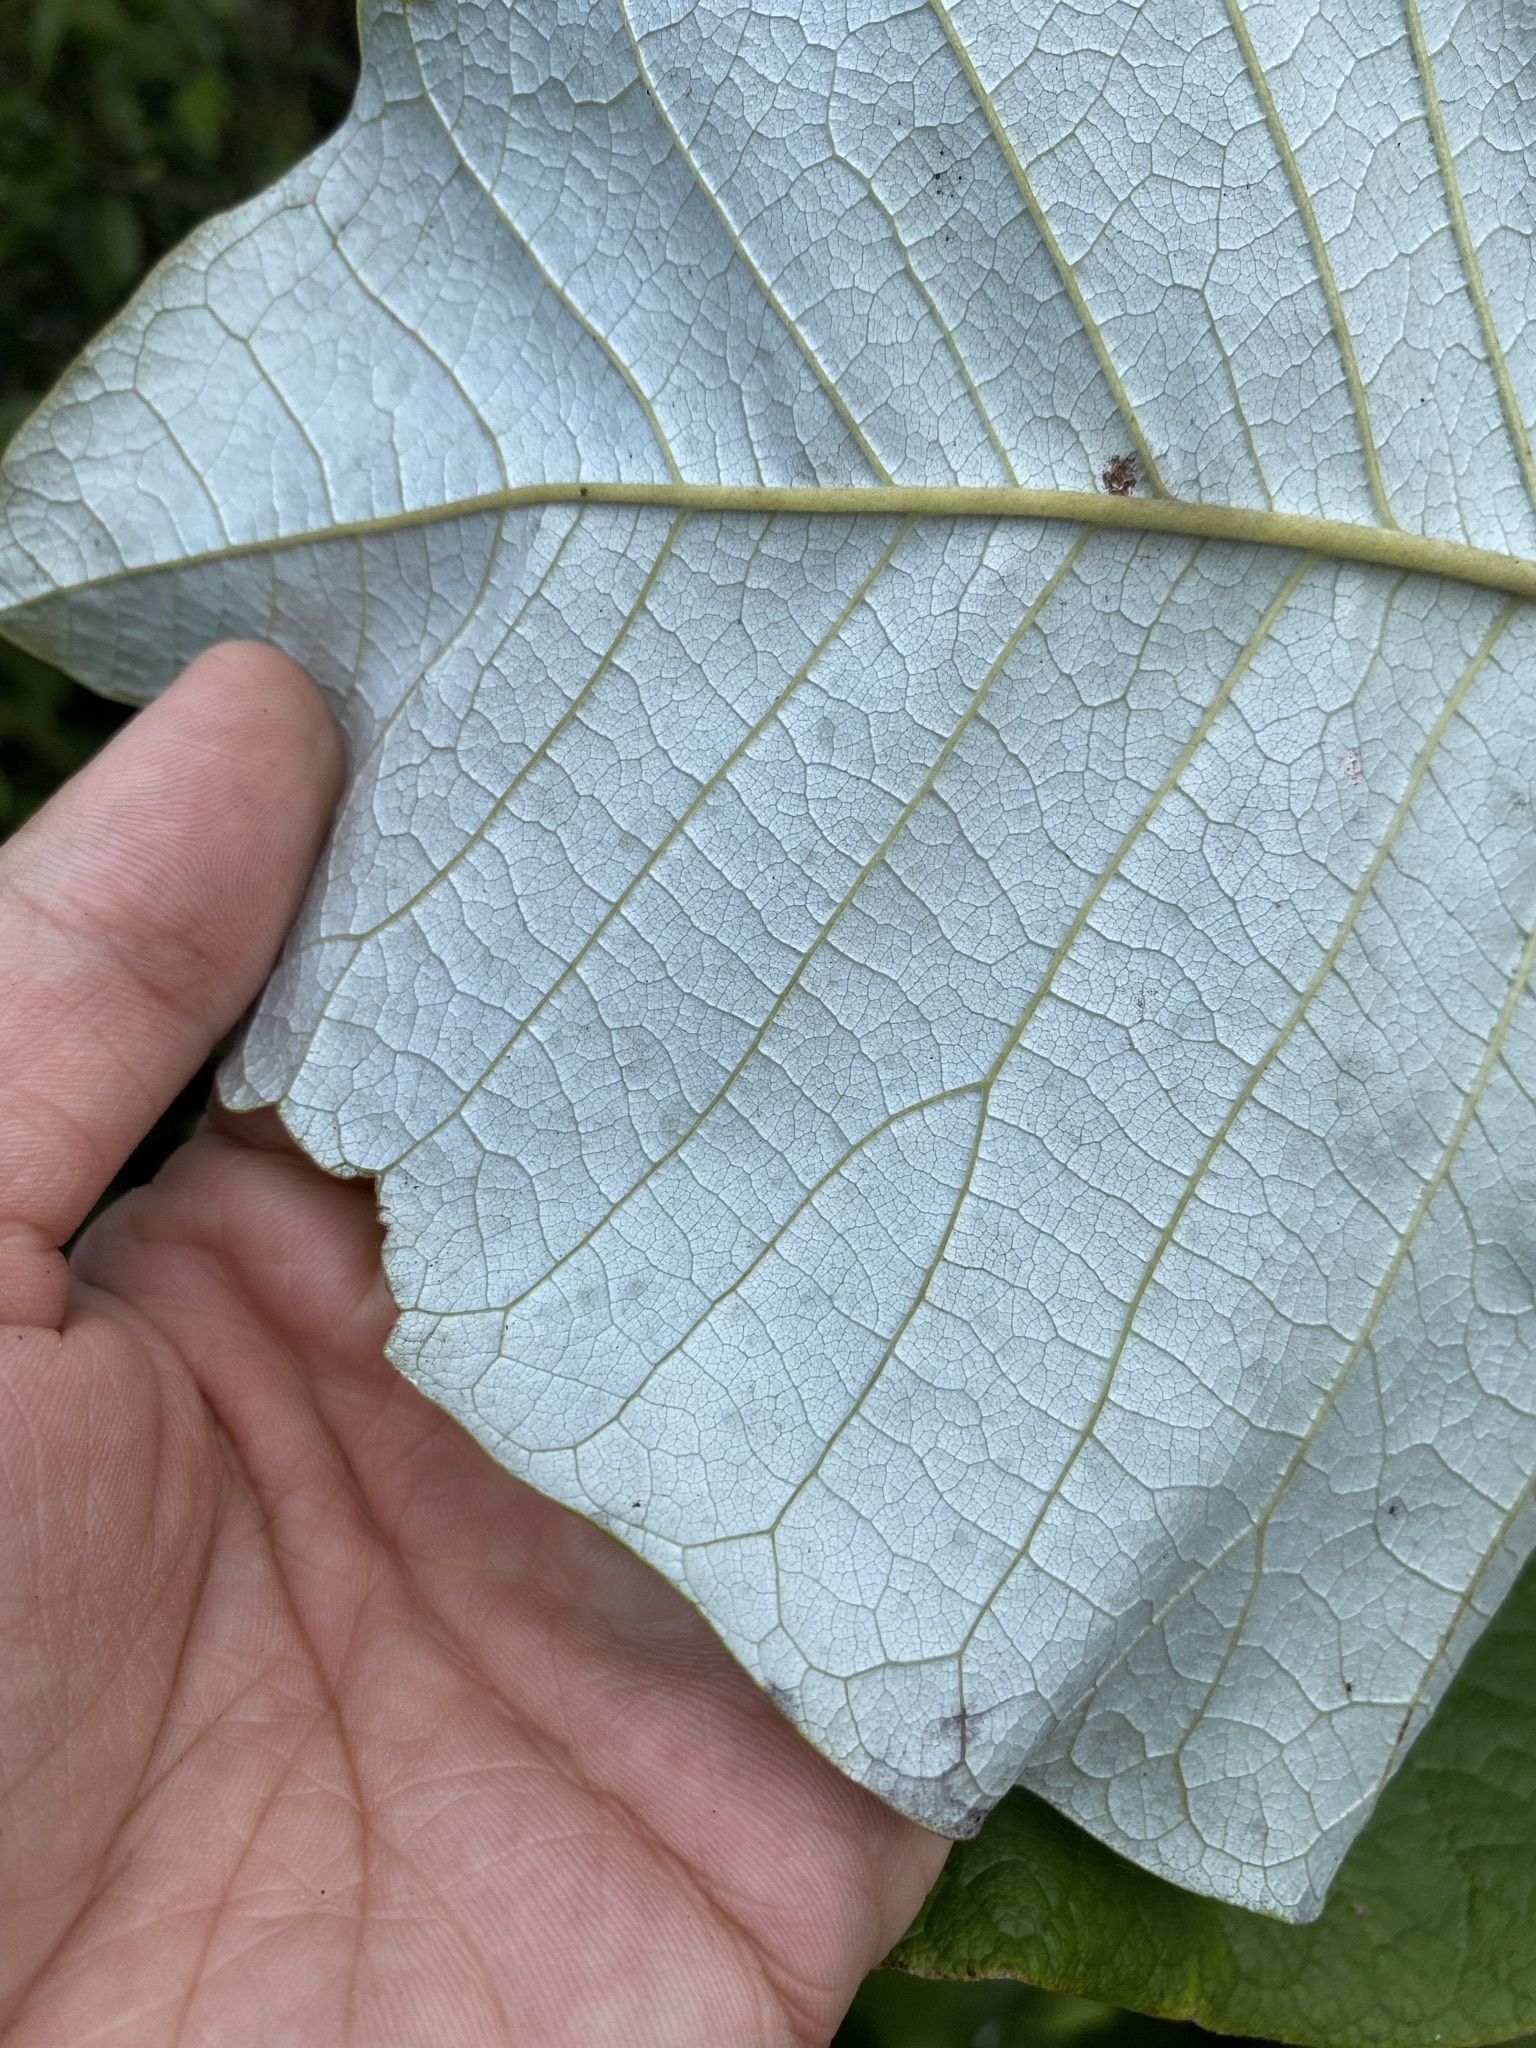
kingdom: Plantae
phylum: Tracheophyta
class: Magnoliopsida
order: Magnoliales
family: Magnoliaceae
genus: Magnolia
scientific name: Magnolia ashei
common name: Ashe's magnolia
